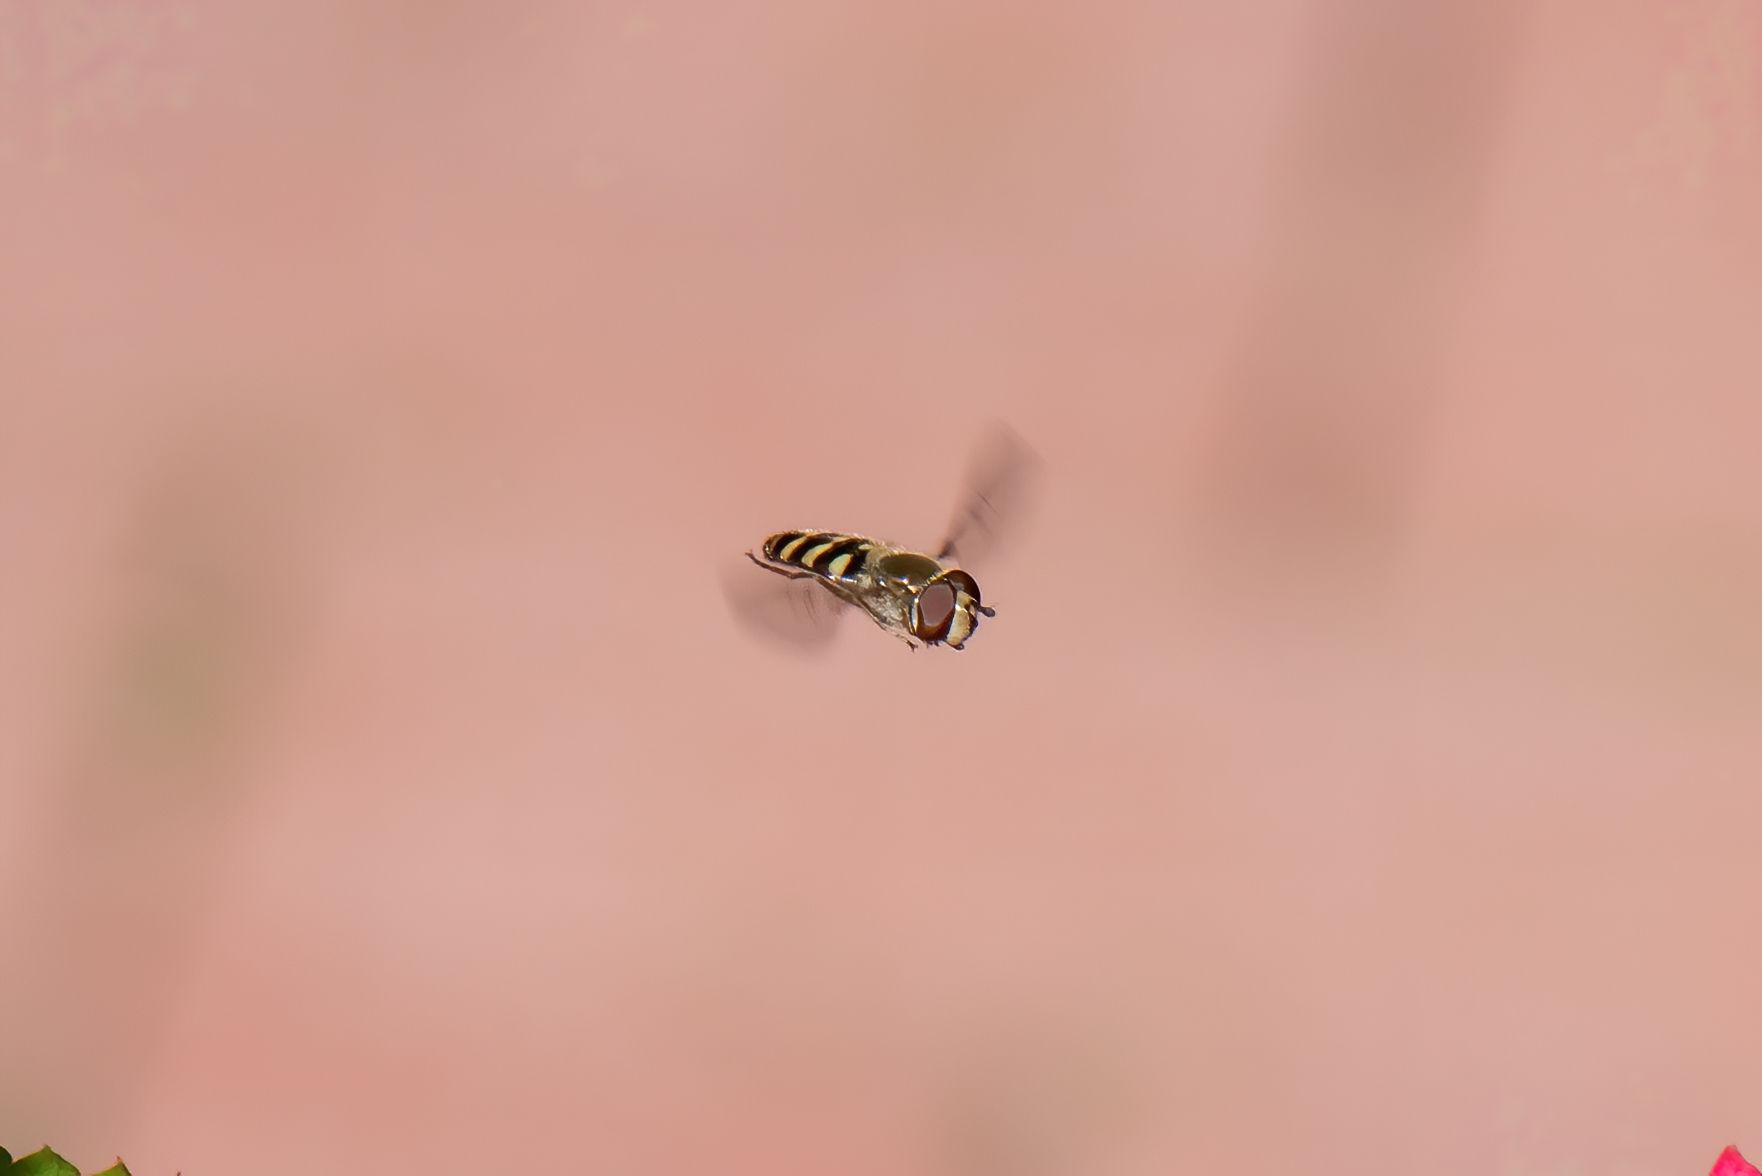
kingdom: Animalia
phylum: Arthropoda
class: Insecta
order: Diptera
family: Syrphidae
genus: Eupeodes
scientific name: Eupeodes fumipennis
